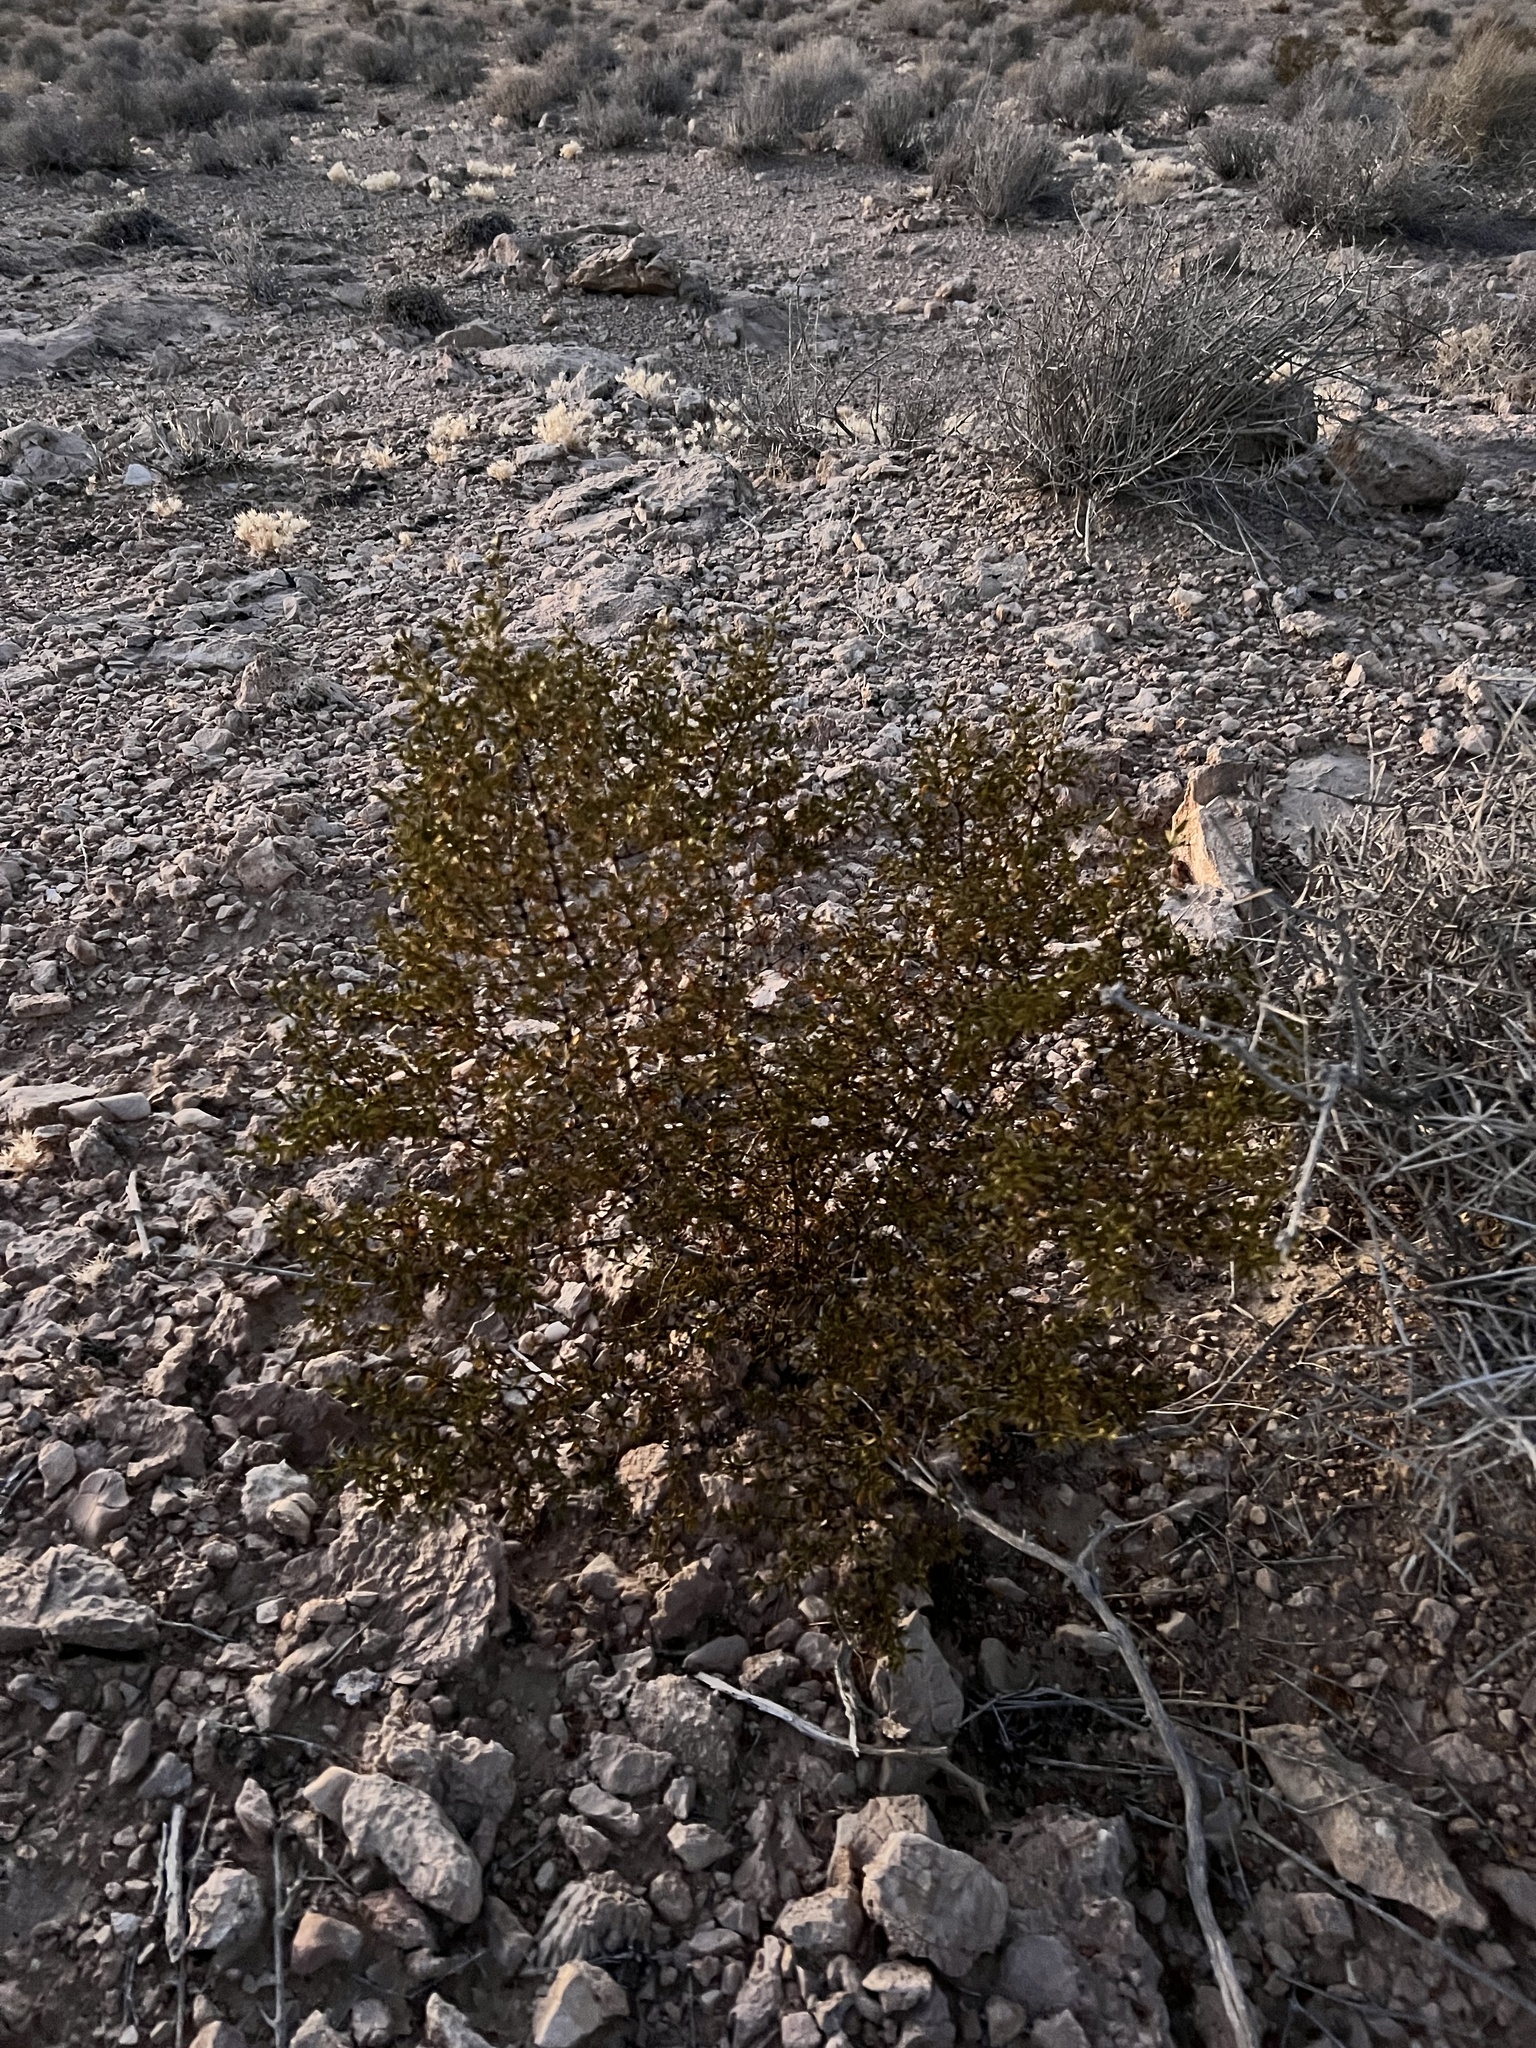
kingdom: Plantae
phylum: Tracheophyta
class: Magnoliopsida
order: Zygophyllales
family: Zygophyllaceae
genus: Larrea
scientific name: Larrea tridentata
